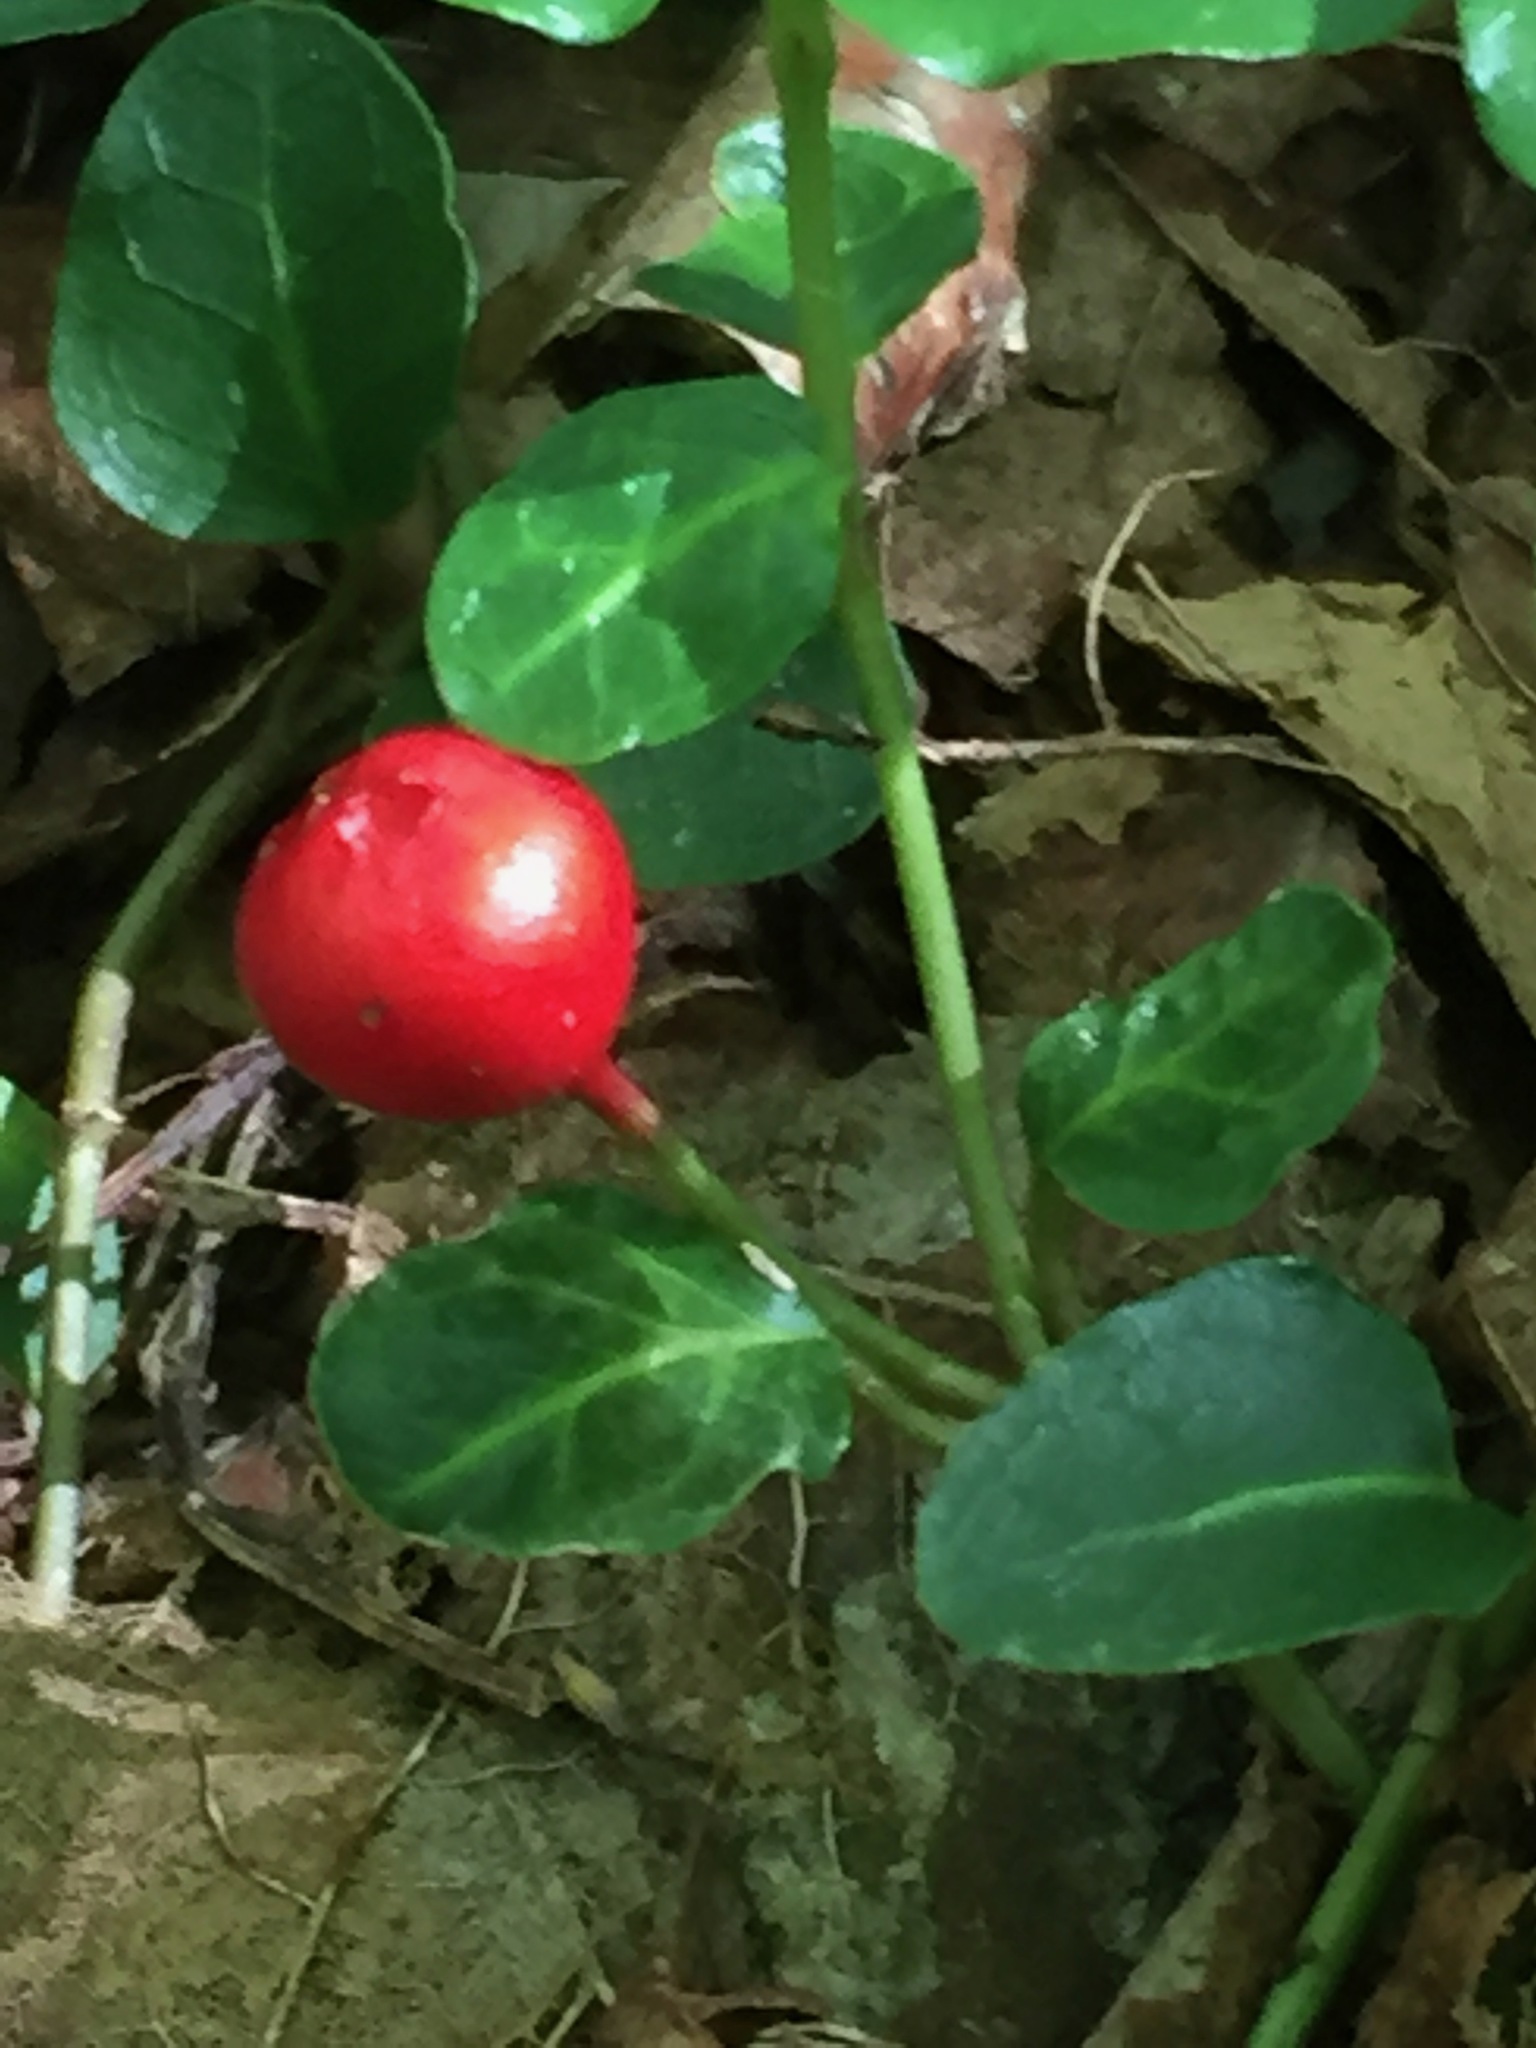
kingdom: Plantae
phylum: Tracheophyta
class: Magnoliopsida
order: Gentianales
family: Rubiaceae
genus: Mitchella
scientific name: Mitchella repens
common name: Partridge-berry
